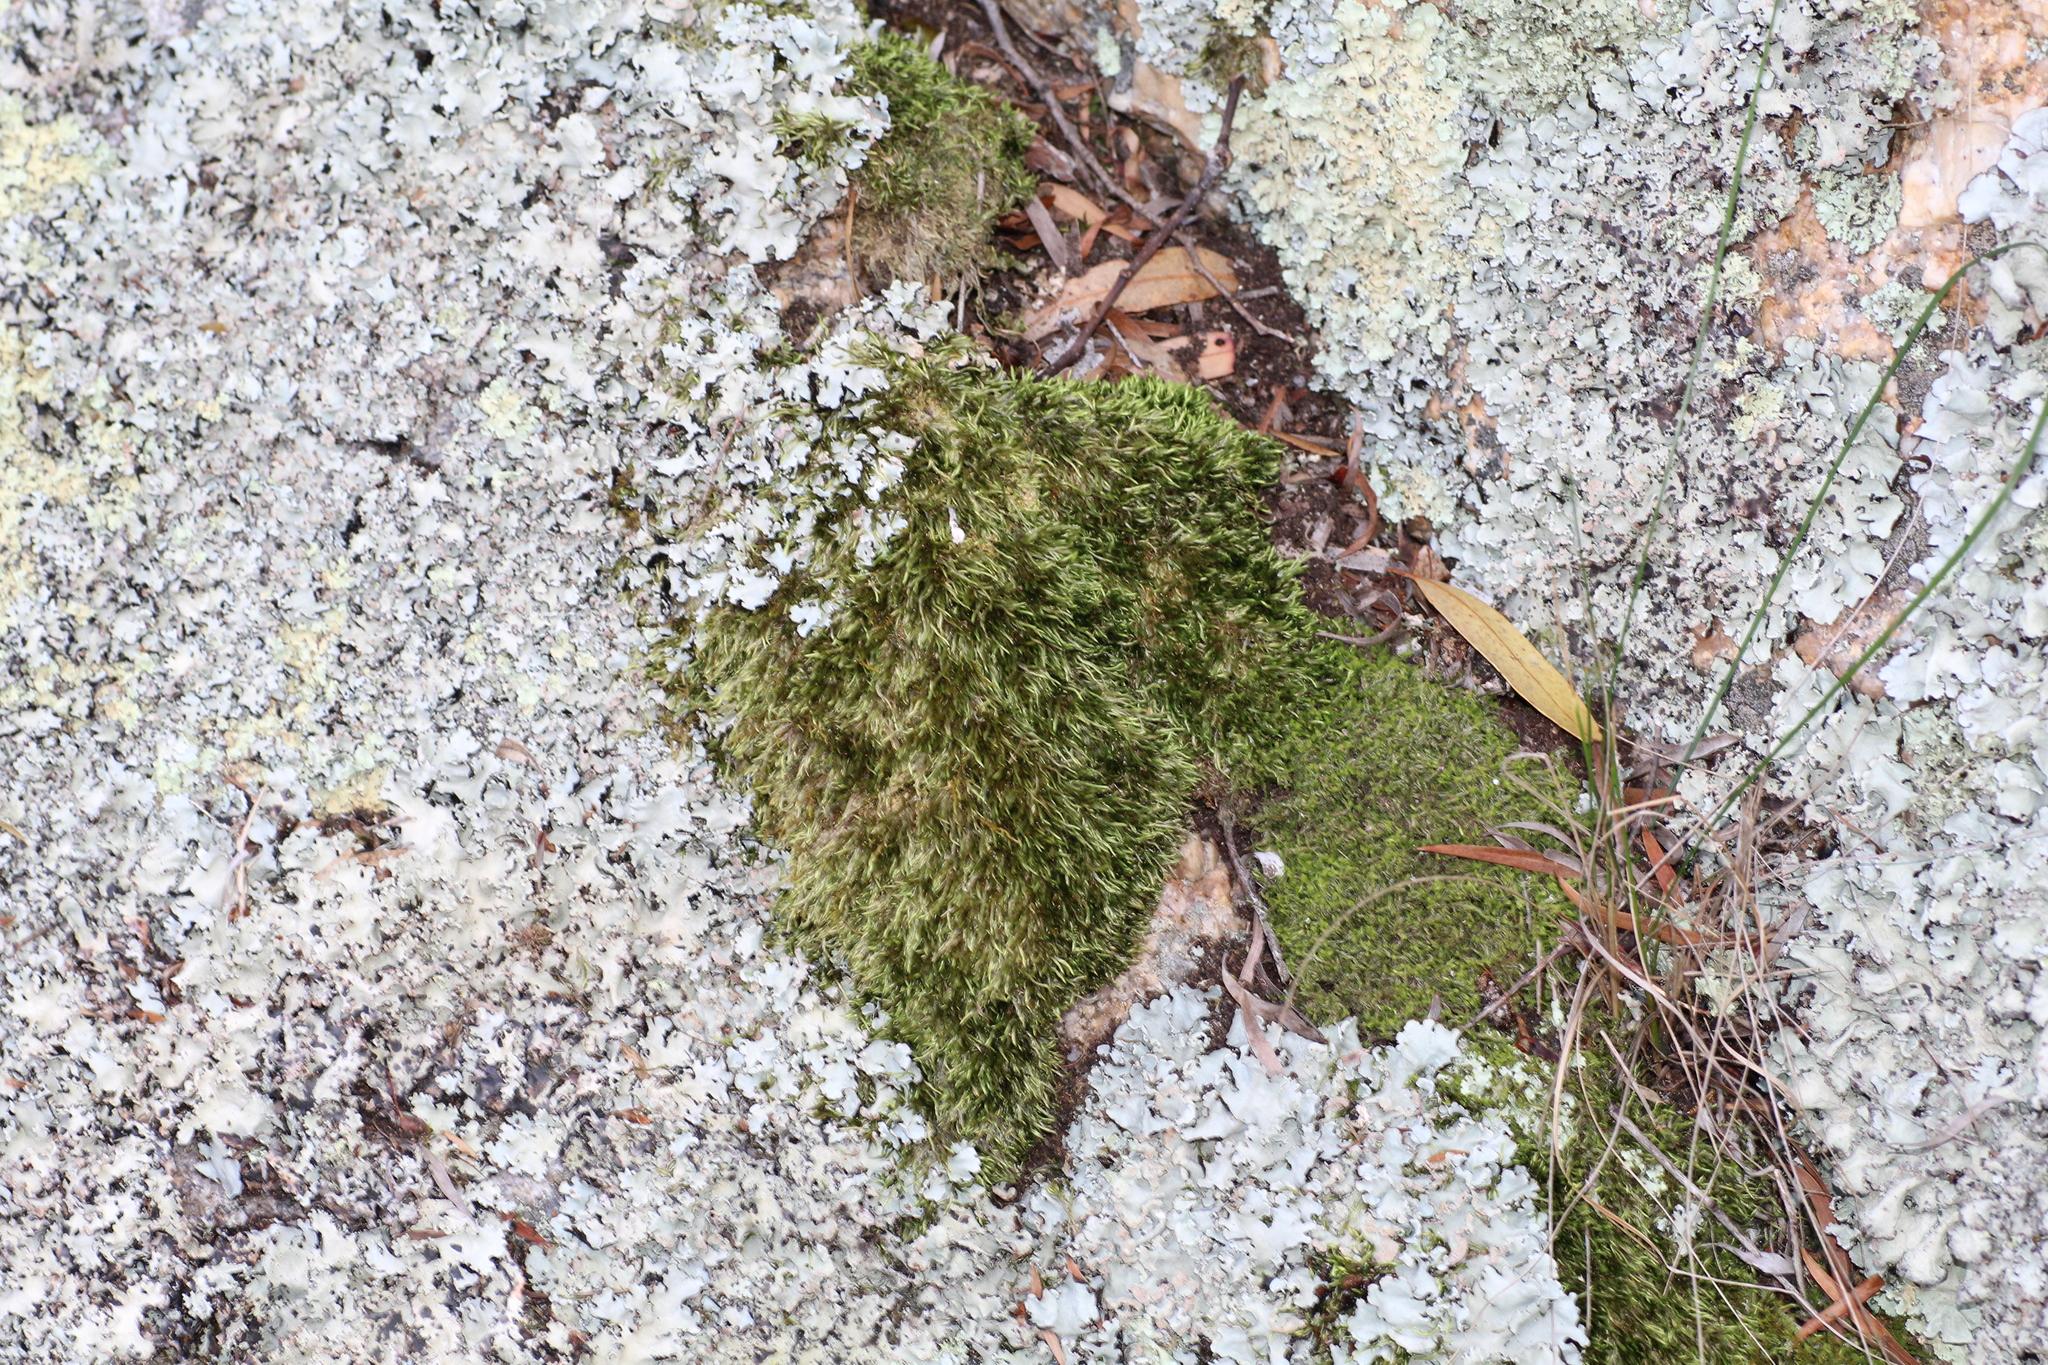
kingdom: Plantae
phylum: Bryophyta
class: Bryopsida
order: Hypnales
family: Fabroniaceae
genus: Ischyrodon
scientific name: Ischyrodon lepturus
